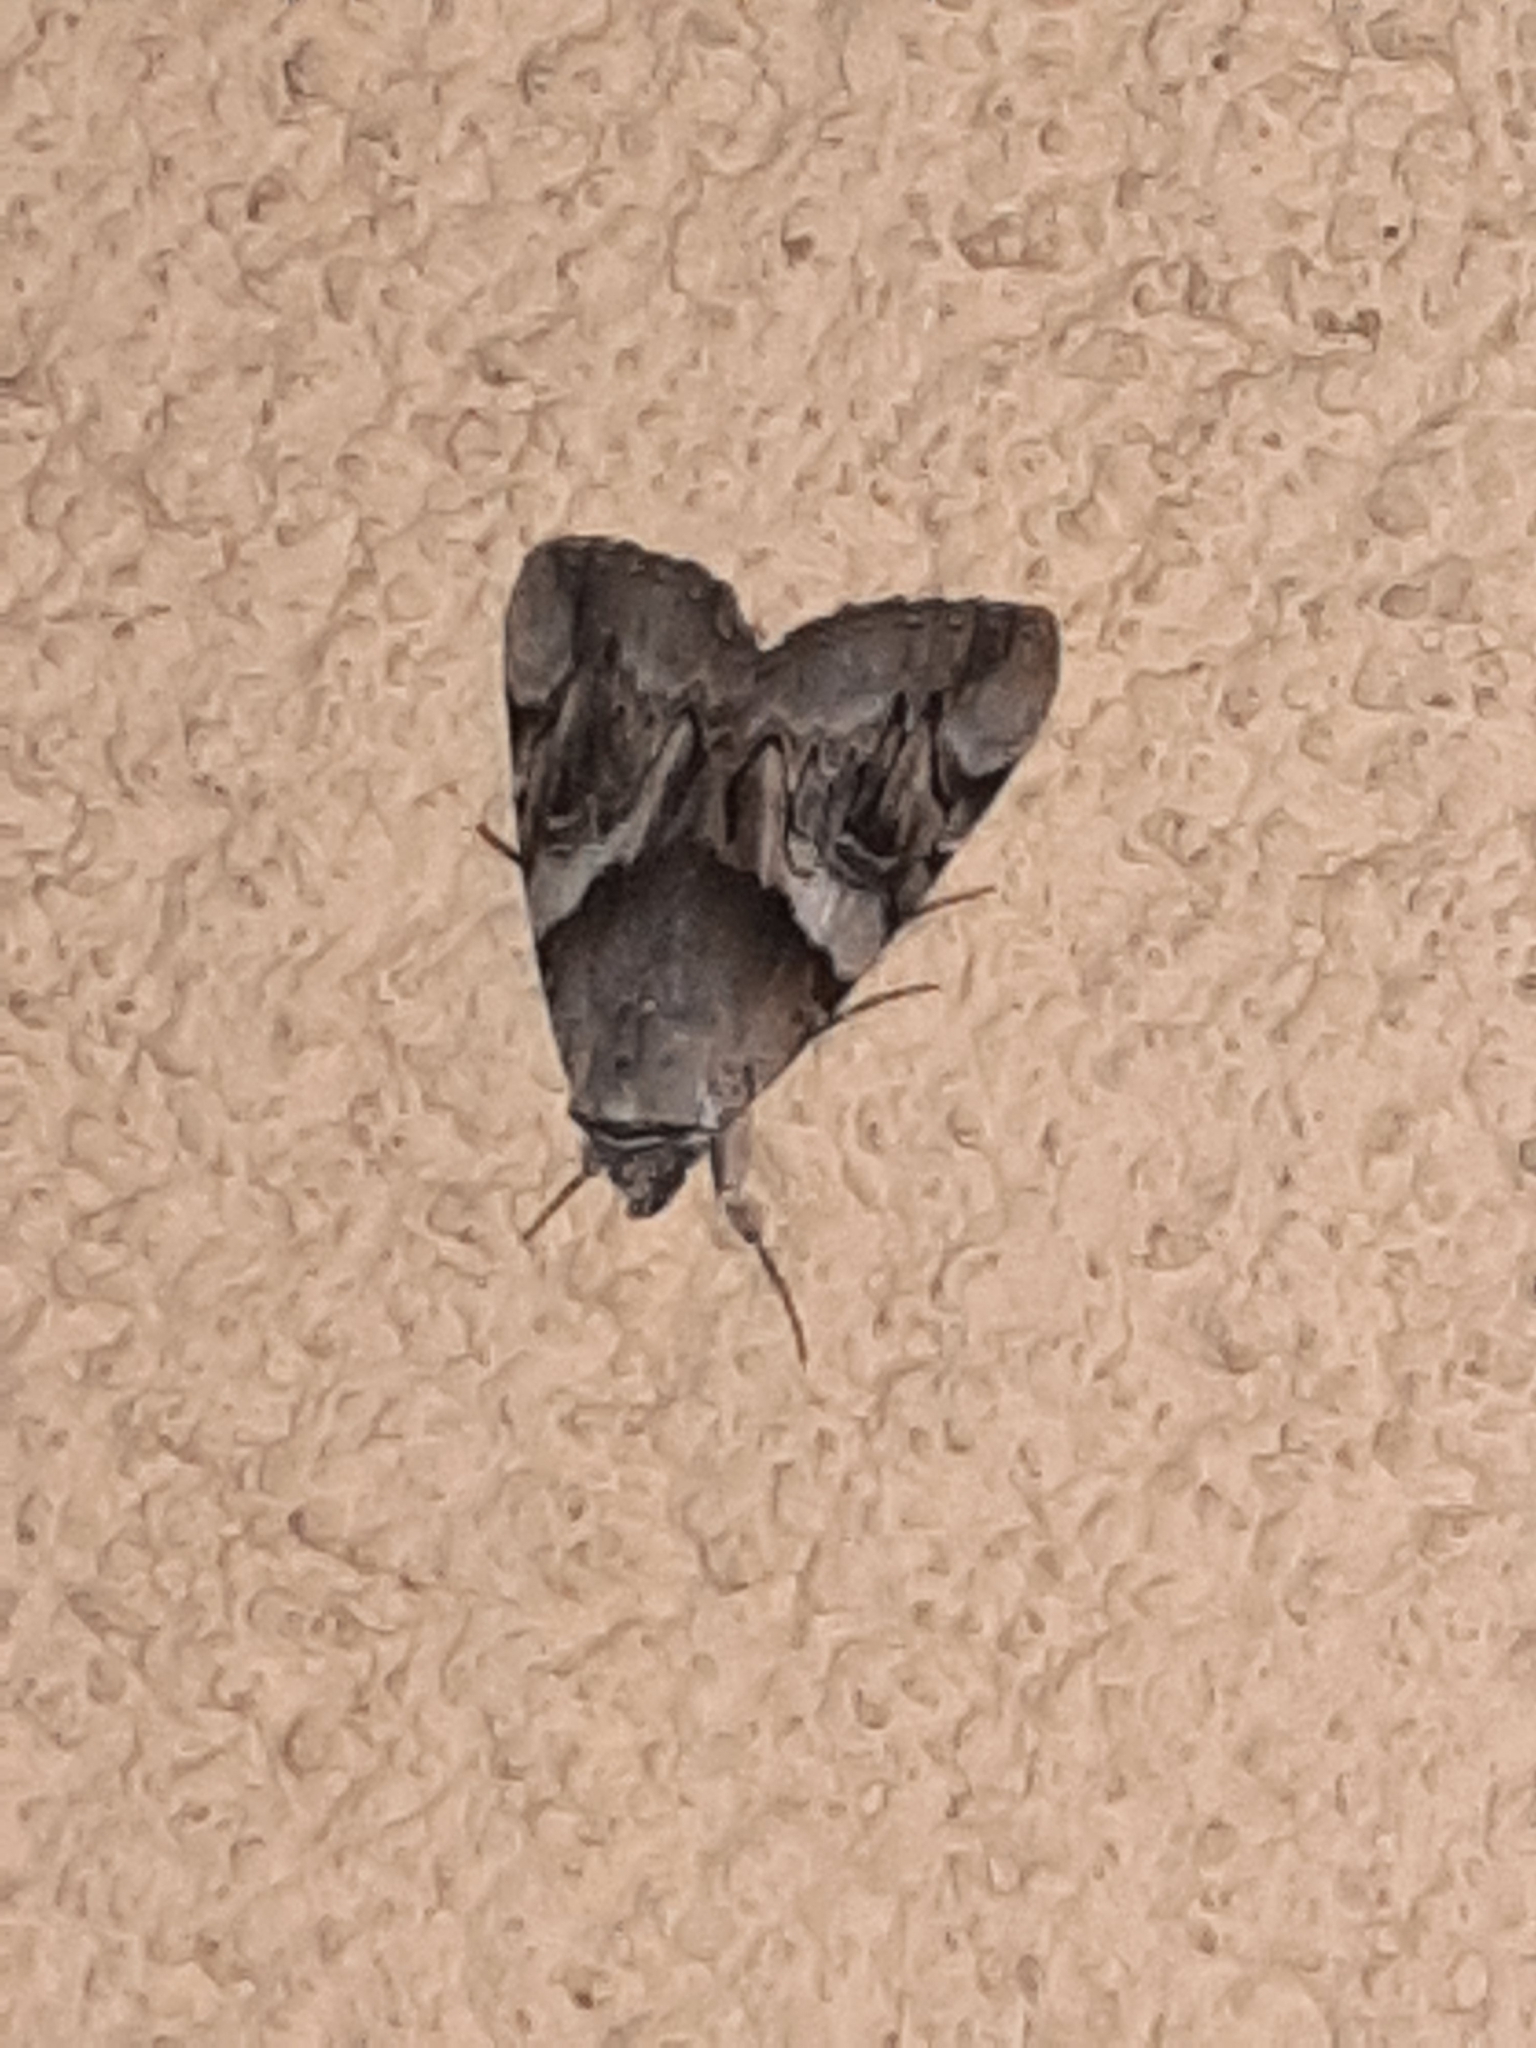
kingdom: Animalia
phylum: Arthropoda
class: Insecta
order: Lepidoptera
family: Erebidae
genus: Catocala
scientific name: Catocala fulminea
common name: Yellow bands underwing
